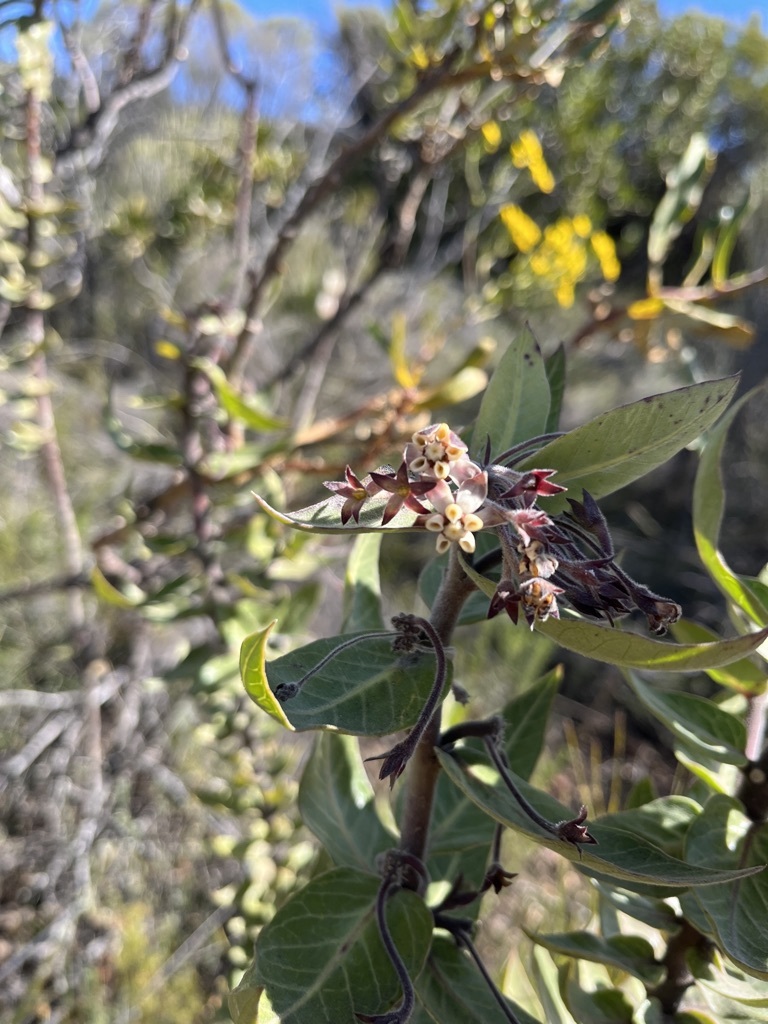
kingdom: Plantae
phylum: Tracheophyta
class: Magnoliopsida
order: Gentianales
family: Apocynaceae
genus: Gomphocarpus
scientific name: Gomphocarpus cancellatus
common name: Wild cotton
